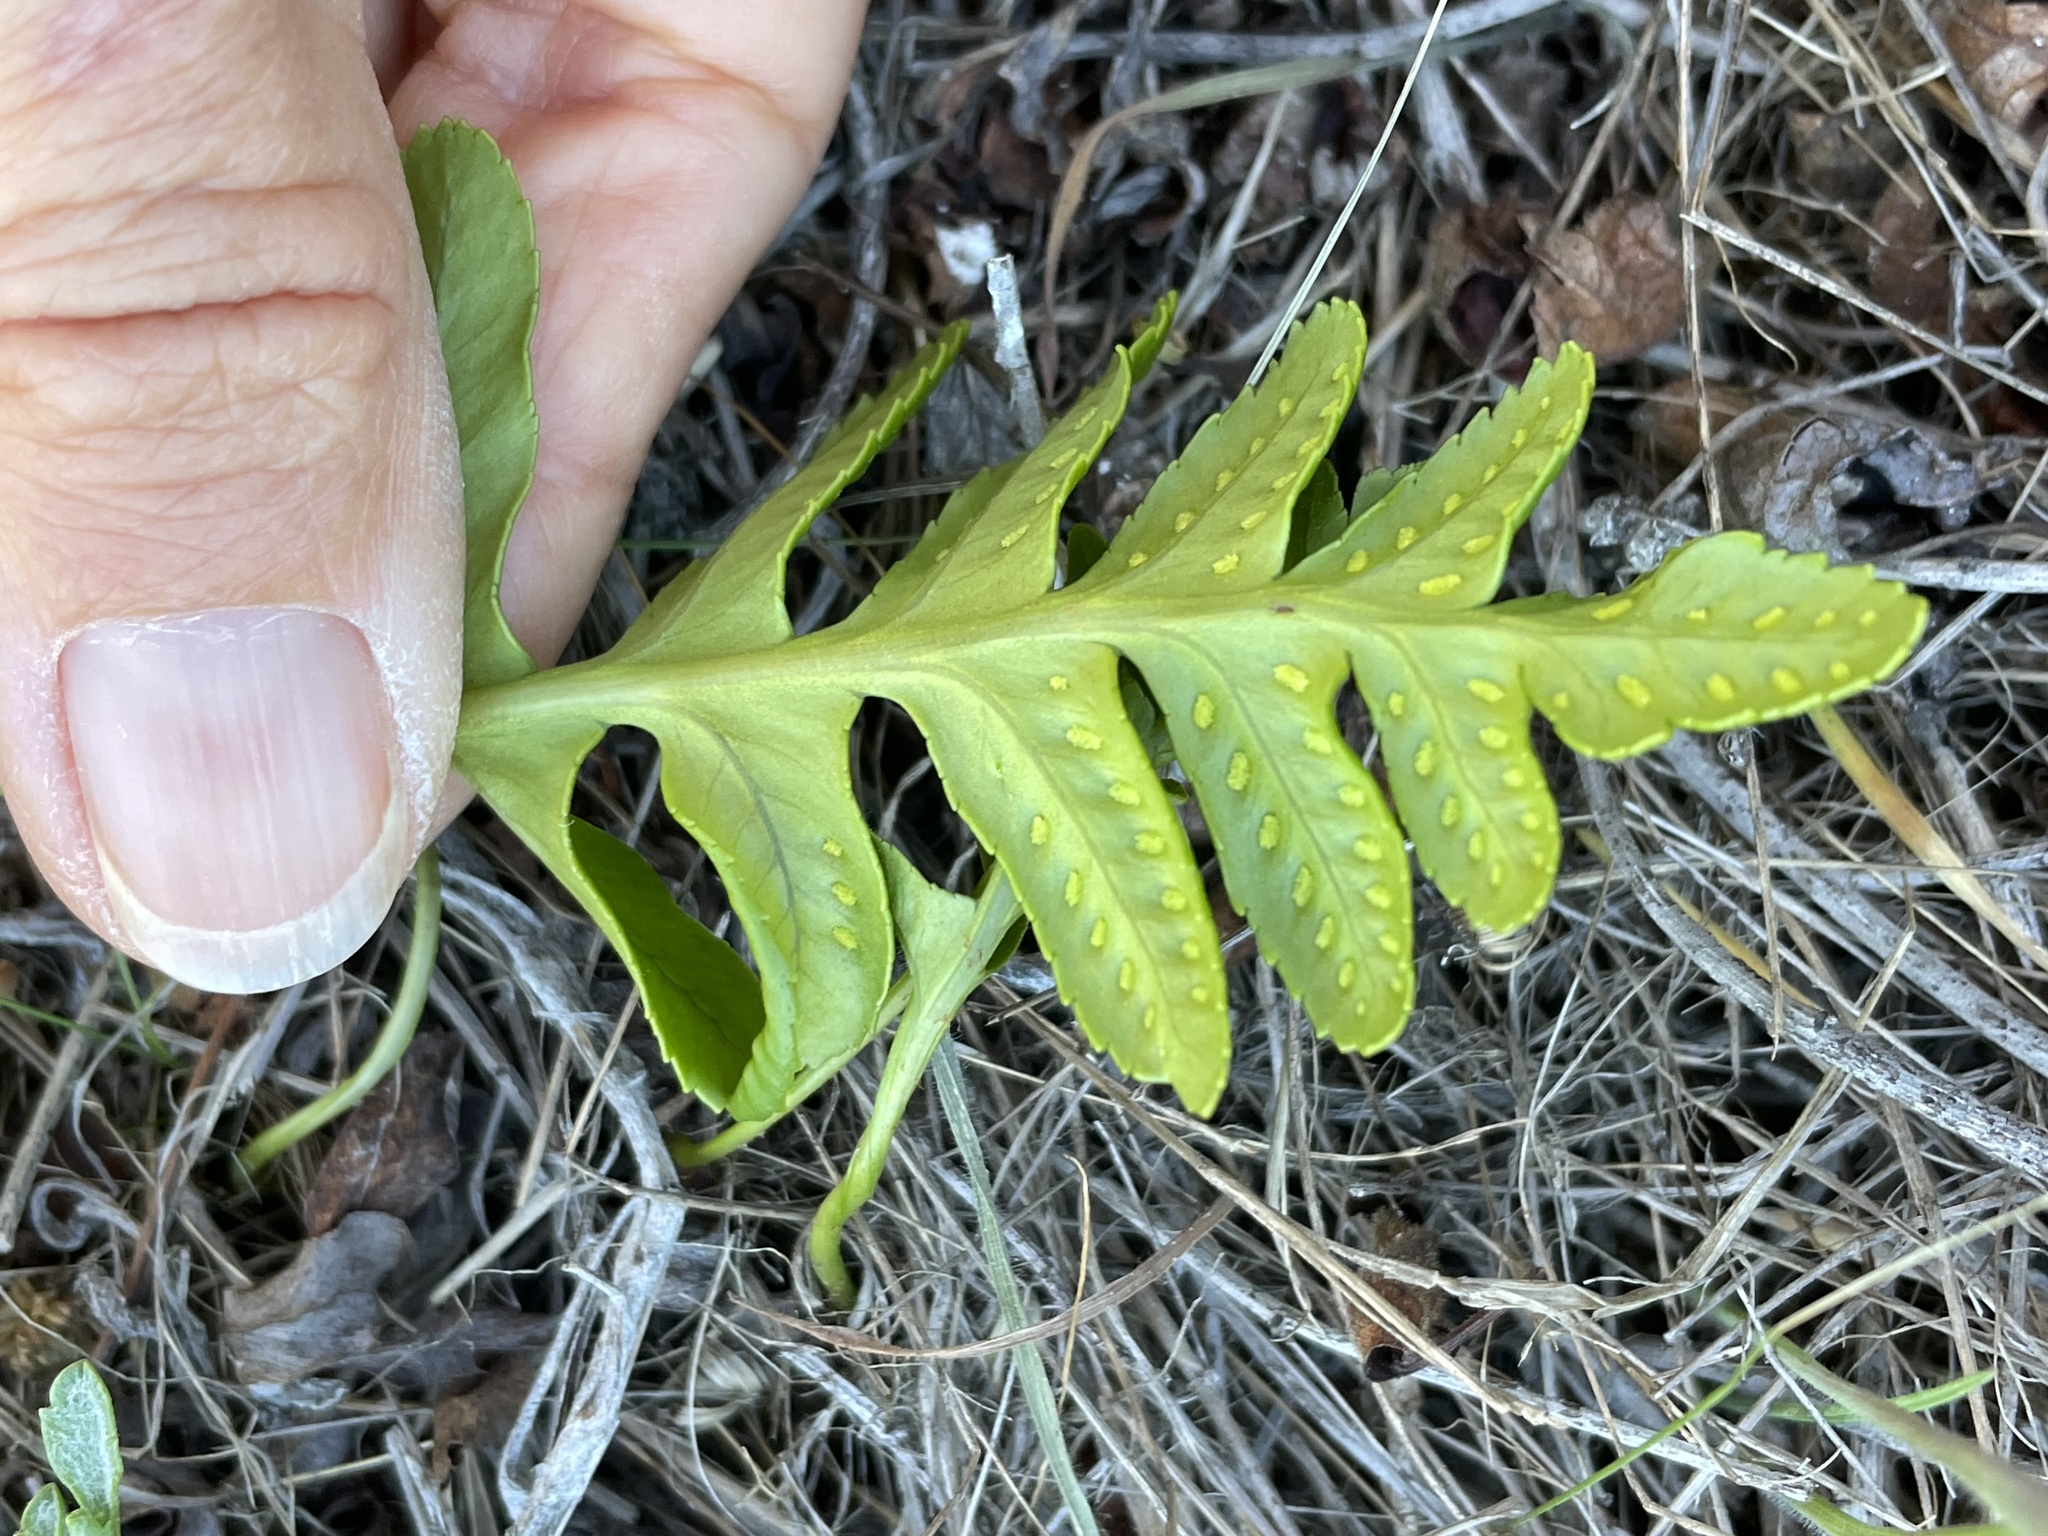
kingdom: Plantae
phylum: Tracheophyta
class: Polypodiopsida
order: Polypodiales
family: Polypodiaceae
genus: Polypodium
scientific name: Polypodium californicum
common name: California polypody
